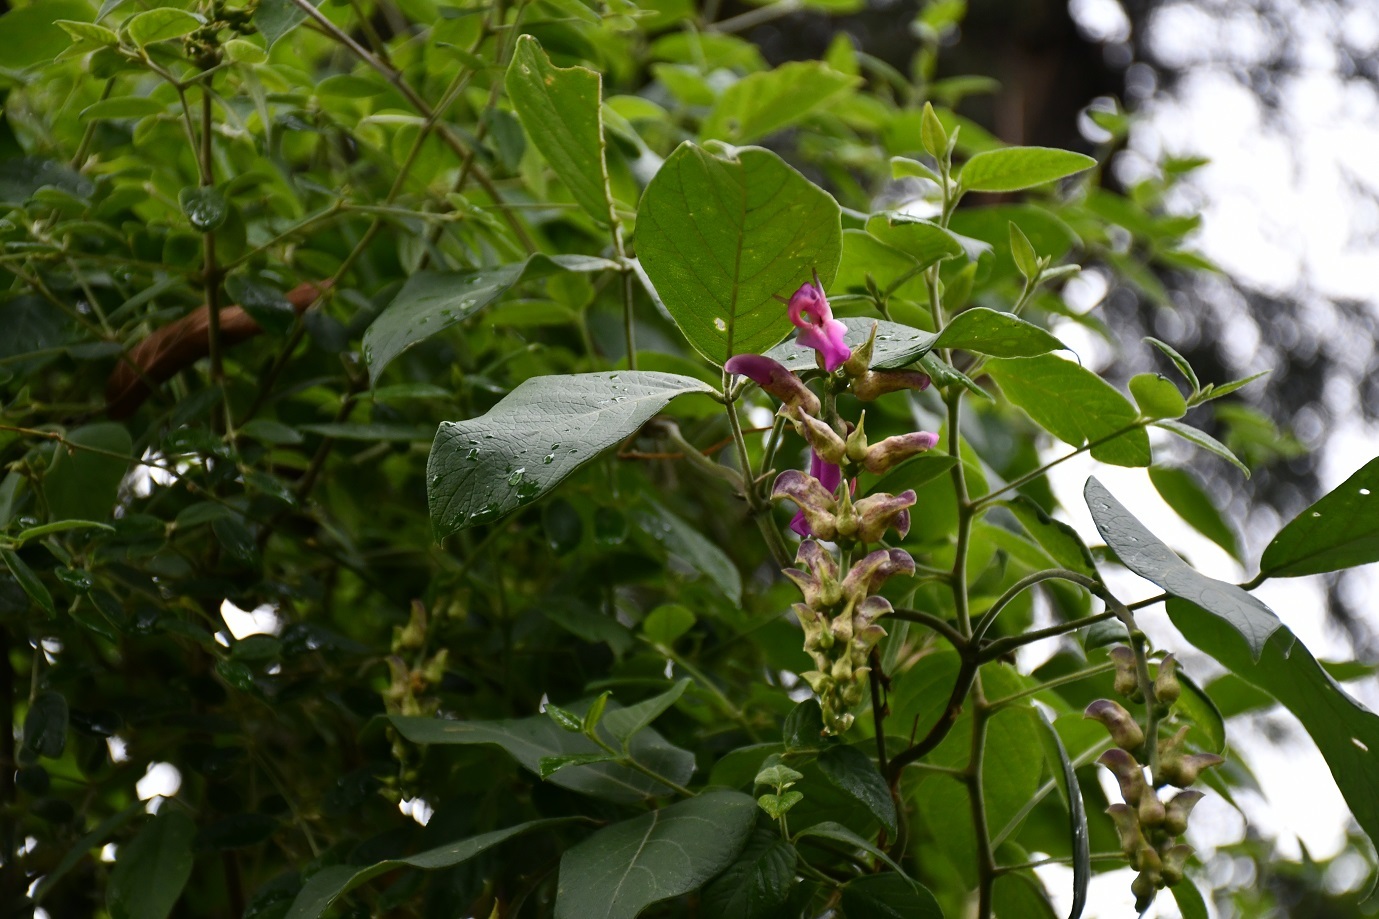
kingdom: Plantae
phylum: Tracheophyta
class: Magnoliopsida
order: Fabales
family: Fabaceae
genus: Canavalia
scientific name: Canavalia oxyphylla
